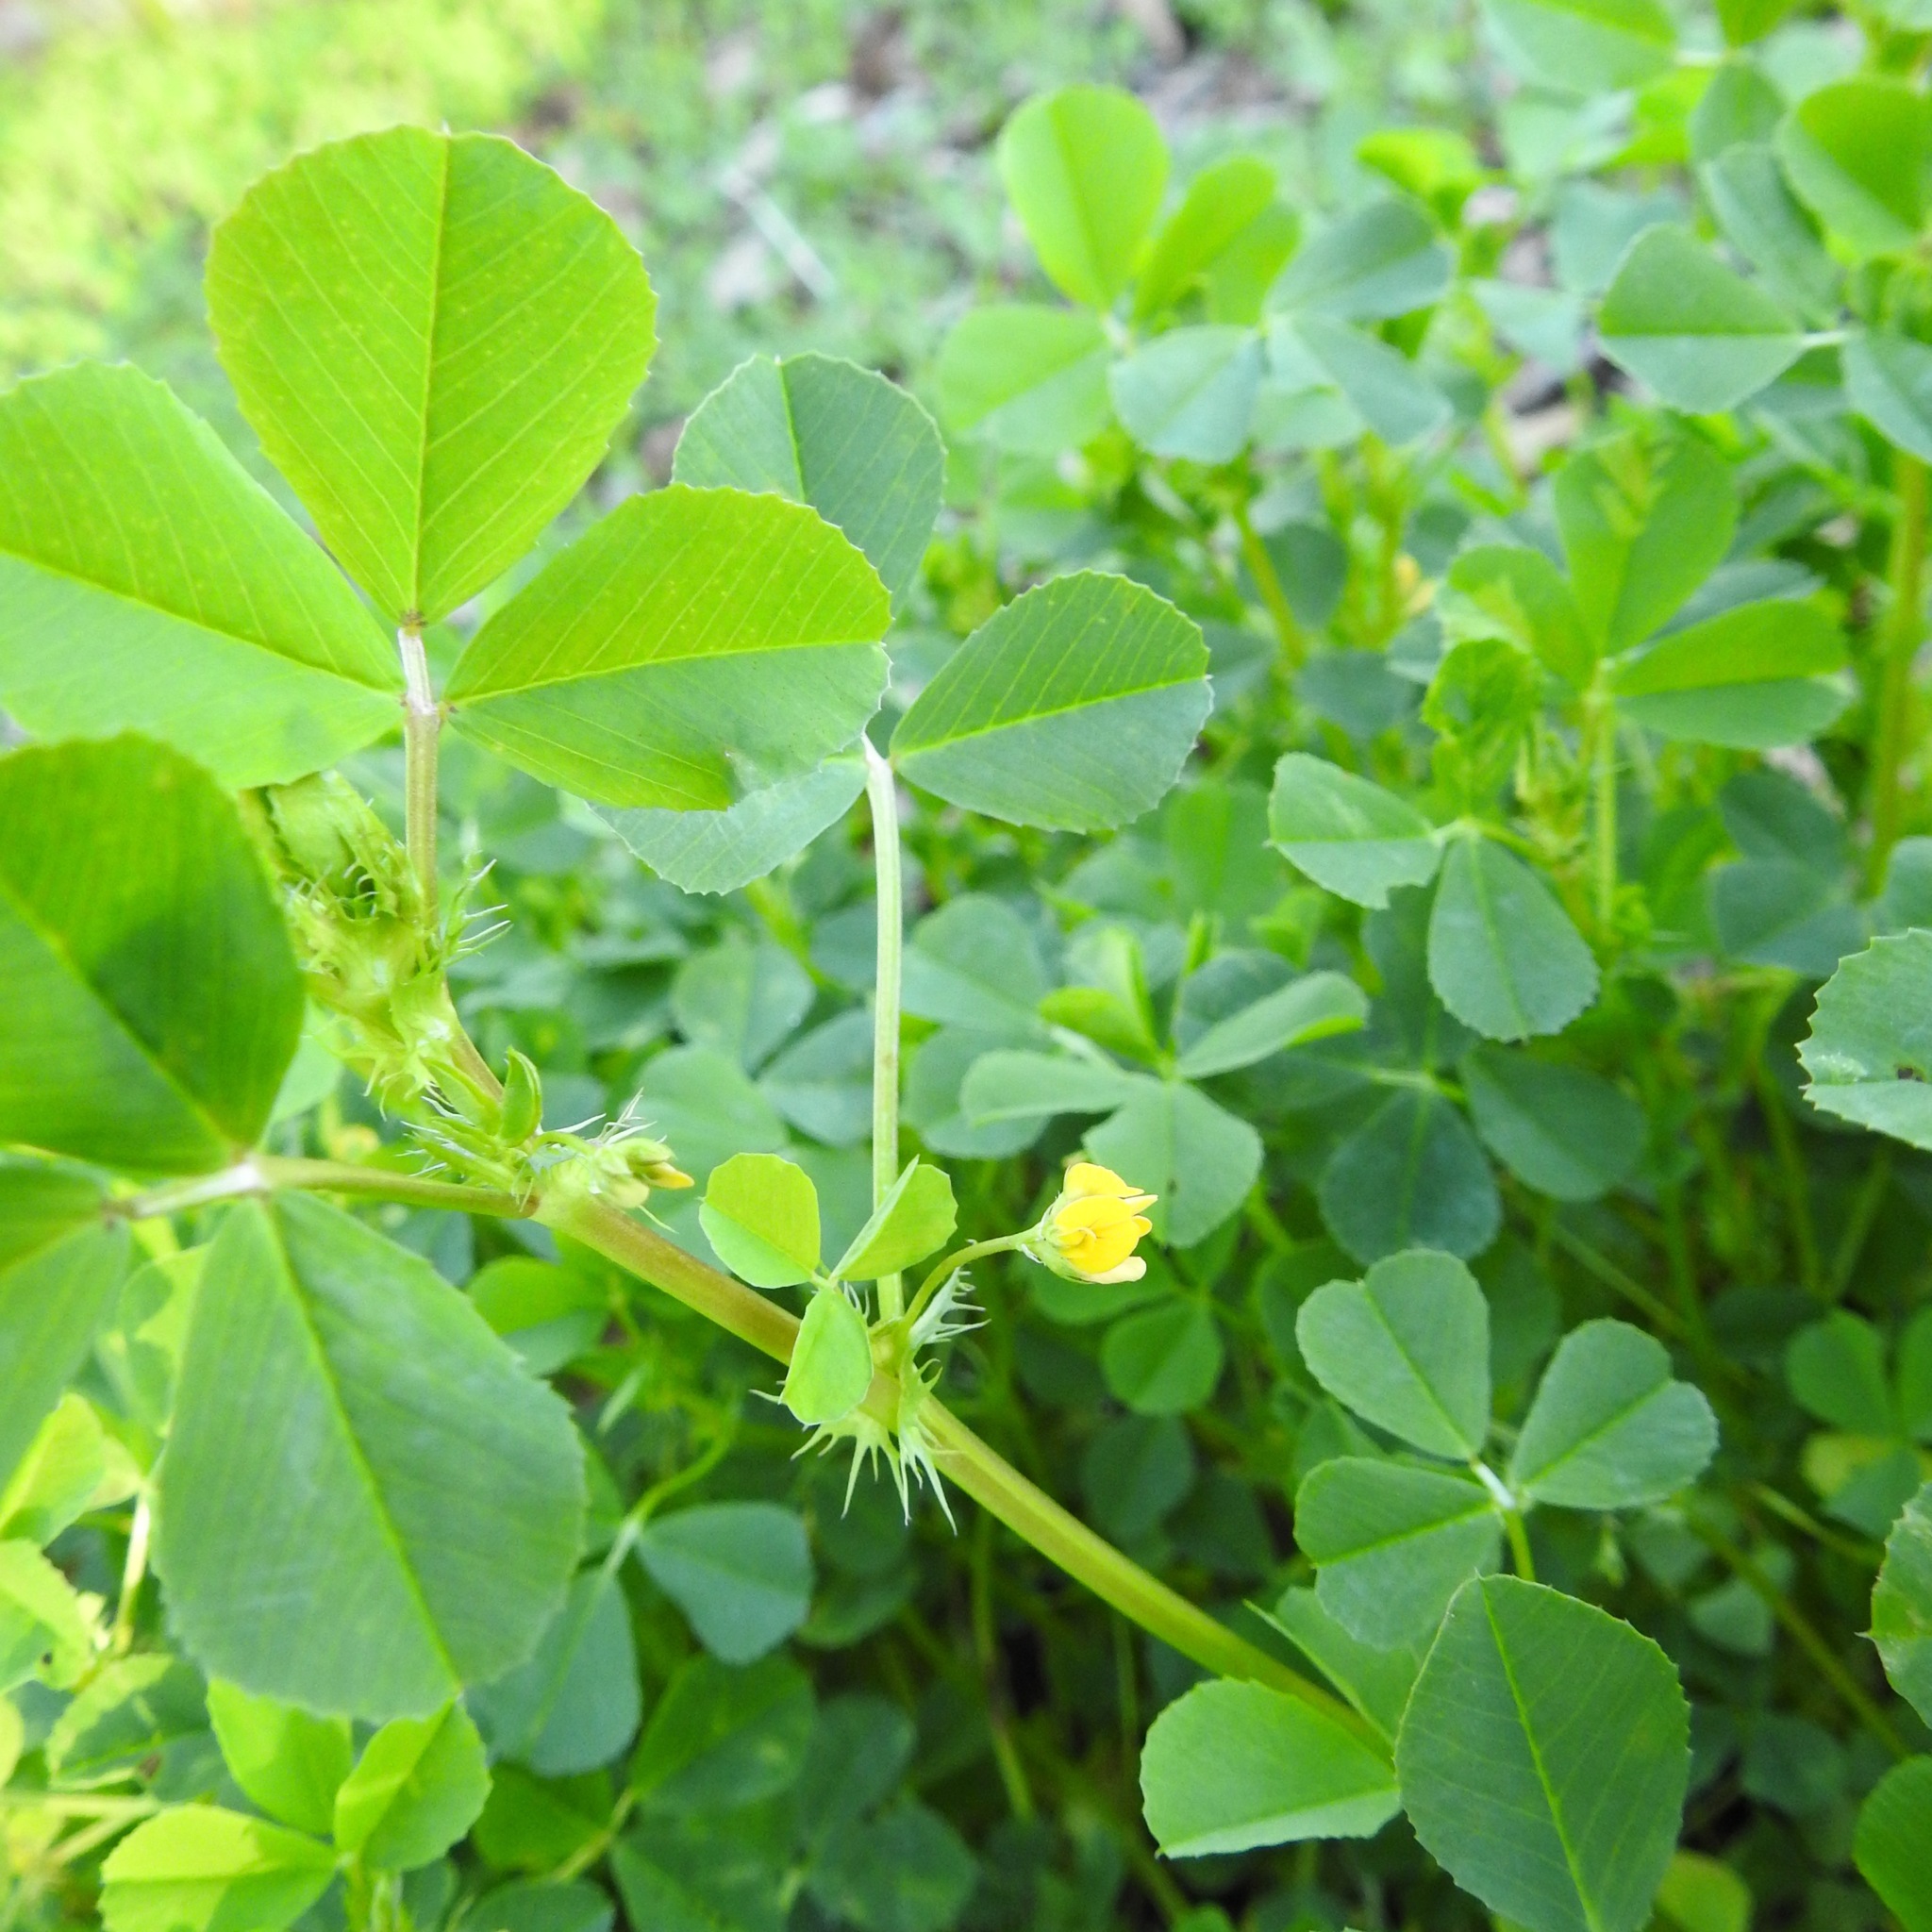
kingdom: Plantae
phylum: Tracheophyta
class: Magnoliopsida
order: Fabales
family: Fabaceae
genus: Medicago
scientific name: Medicago polymorpha
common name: Burclover
